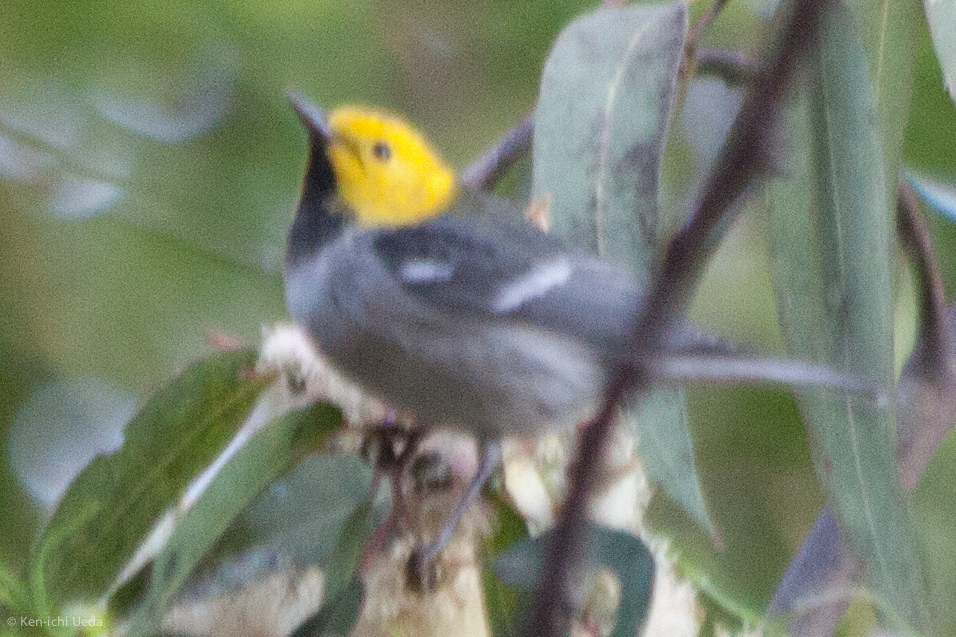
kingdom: Animalia
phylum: Chordata
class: Aves
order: Passeriformes
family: Parulidae
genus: Setophaga
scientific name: Setophaga occidentalis
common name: Hermit warbler
